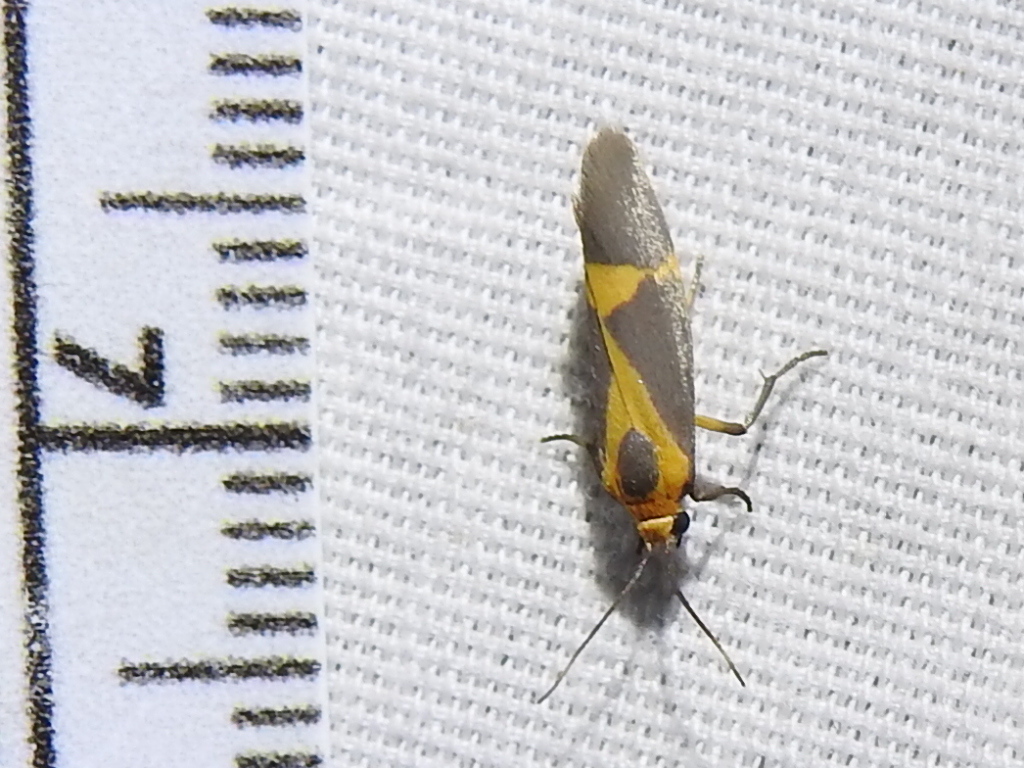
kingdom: Animalia
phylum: Arthropoda
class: Insecta
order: Lepidoptera
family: Erebidae
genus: Cisthene
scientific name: Cisthene tenuifascia
